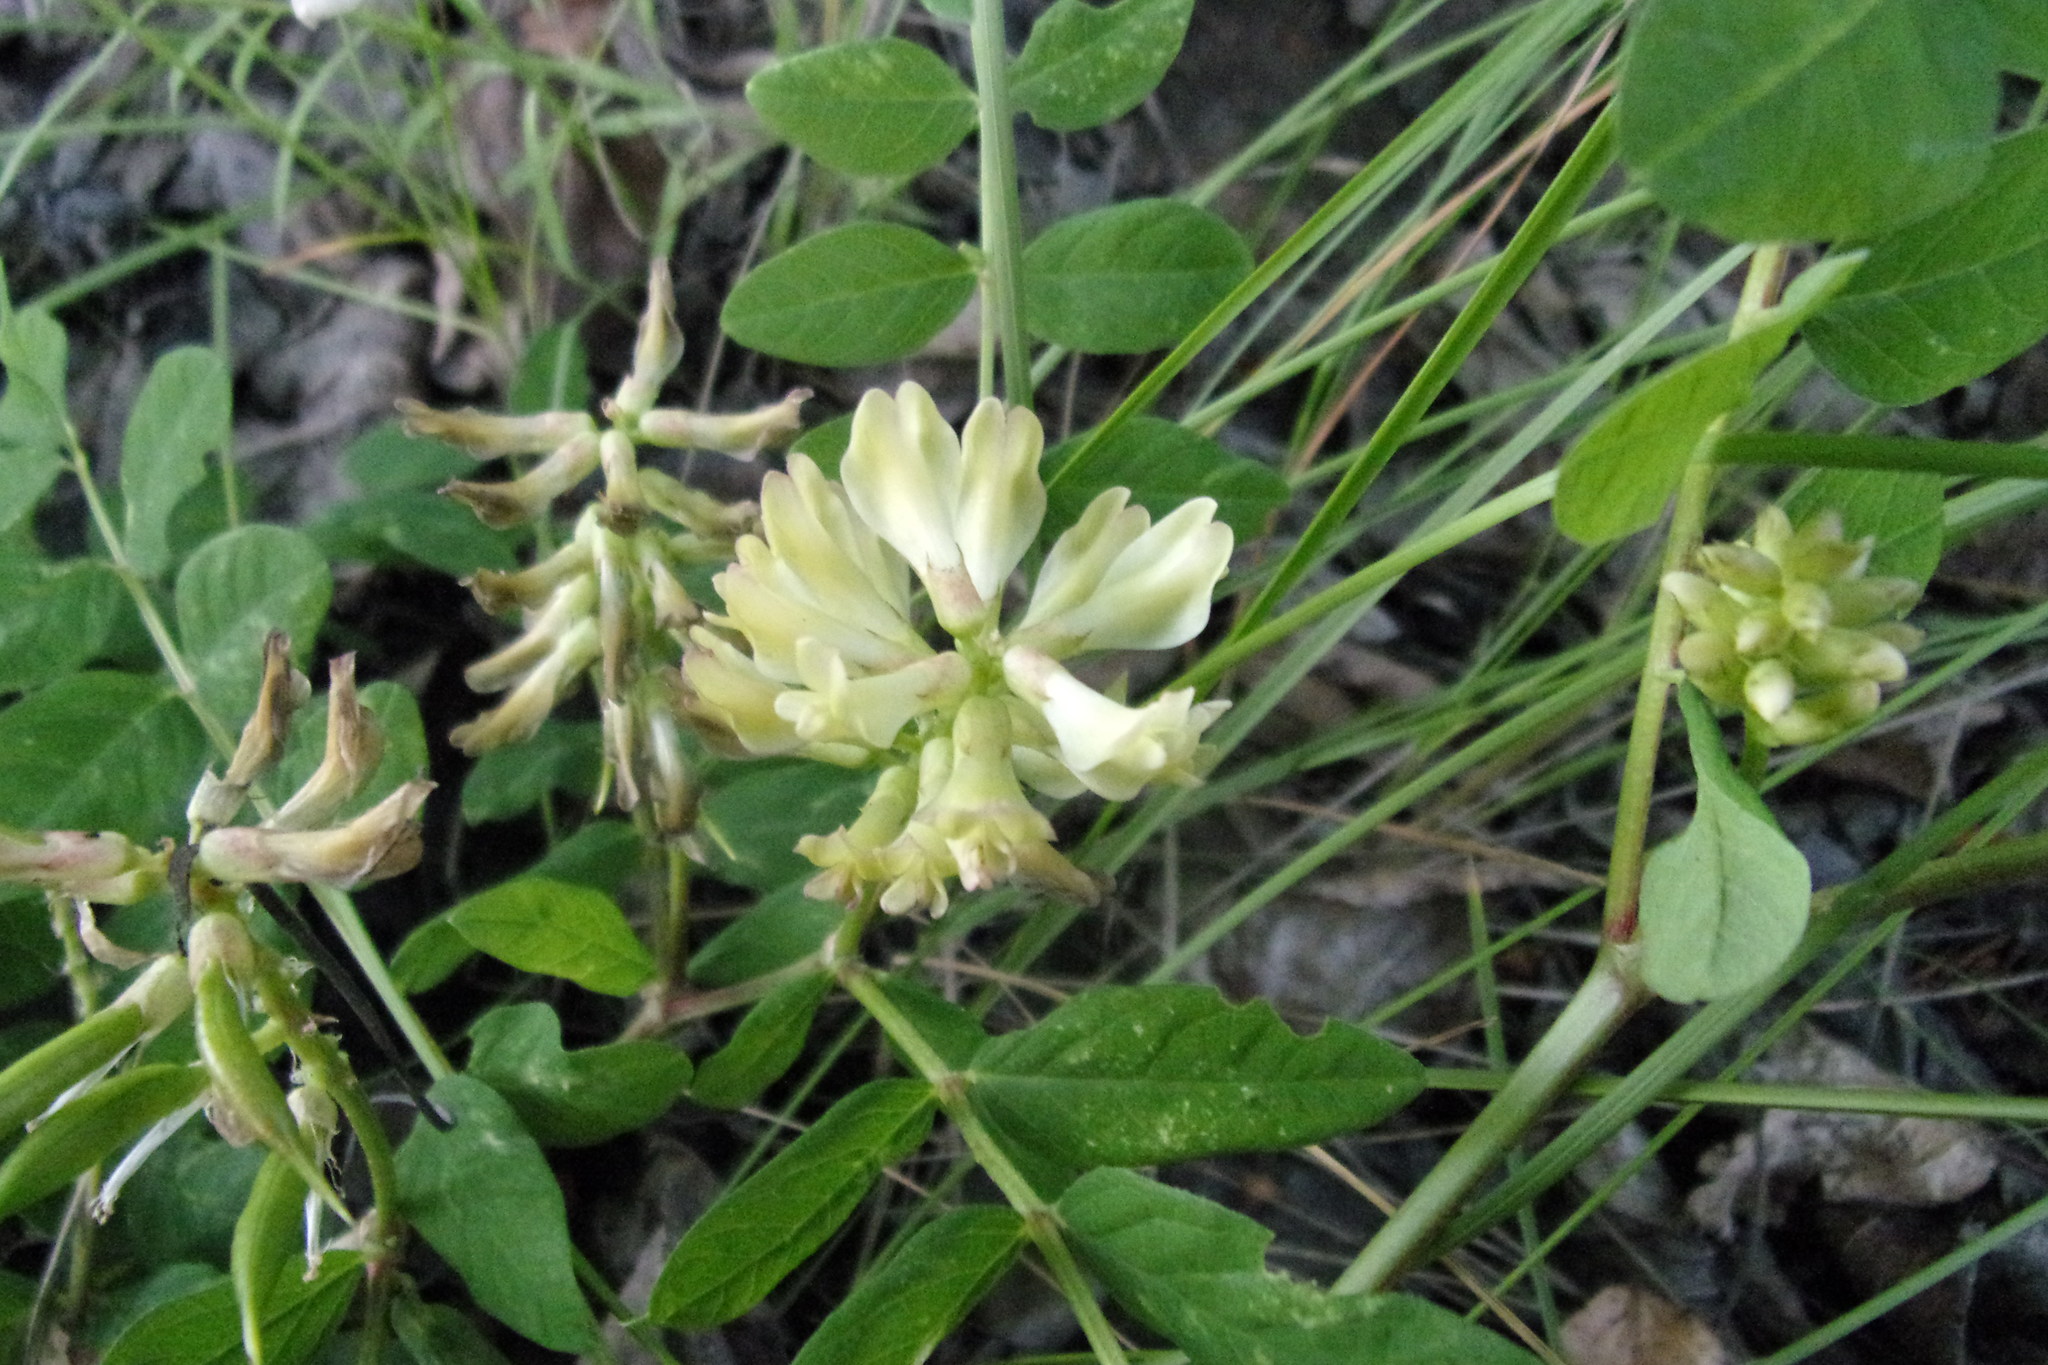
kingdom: Plantae
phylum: Tracheophyta
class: Magnoliopsida
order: Fabales
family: Fabaceae
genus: Astragalus
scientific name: Astragalus glycyphyllos
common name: Wild liquorice
